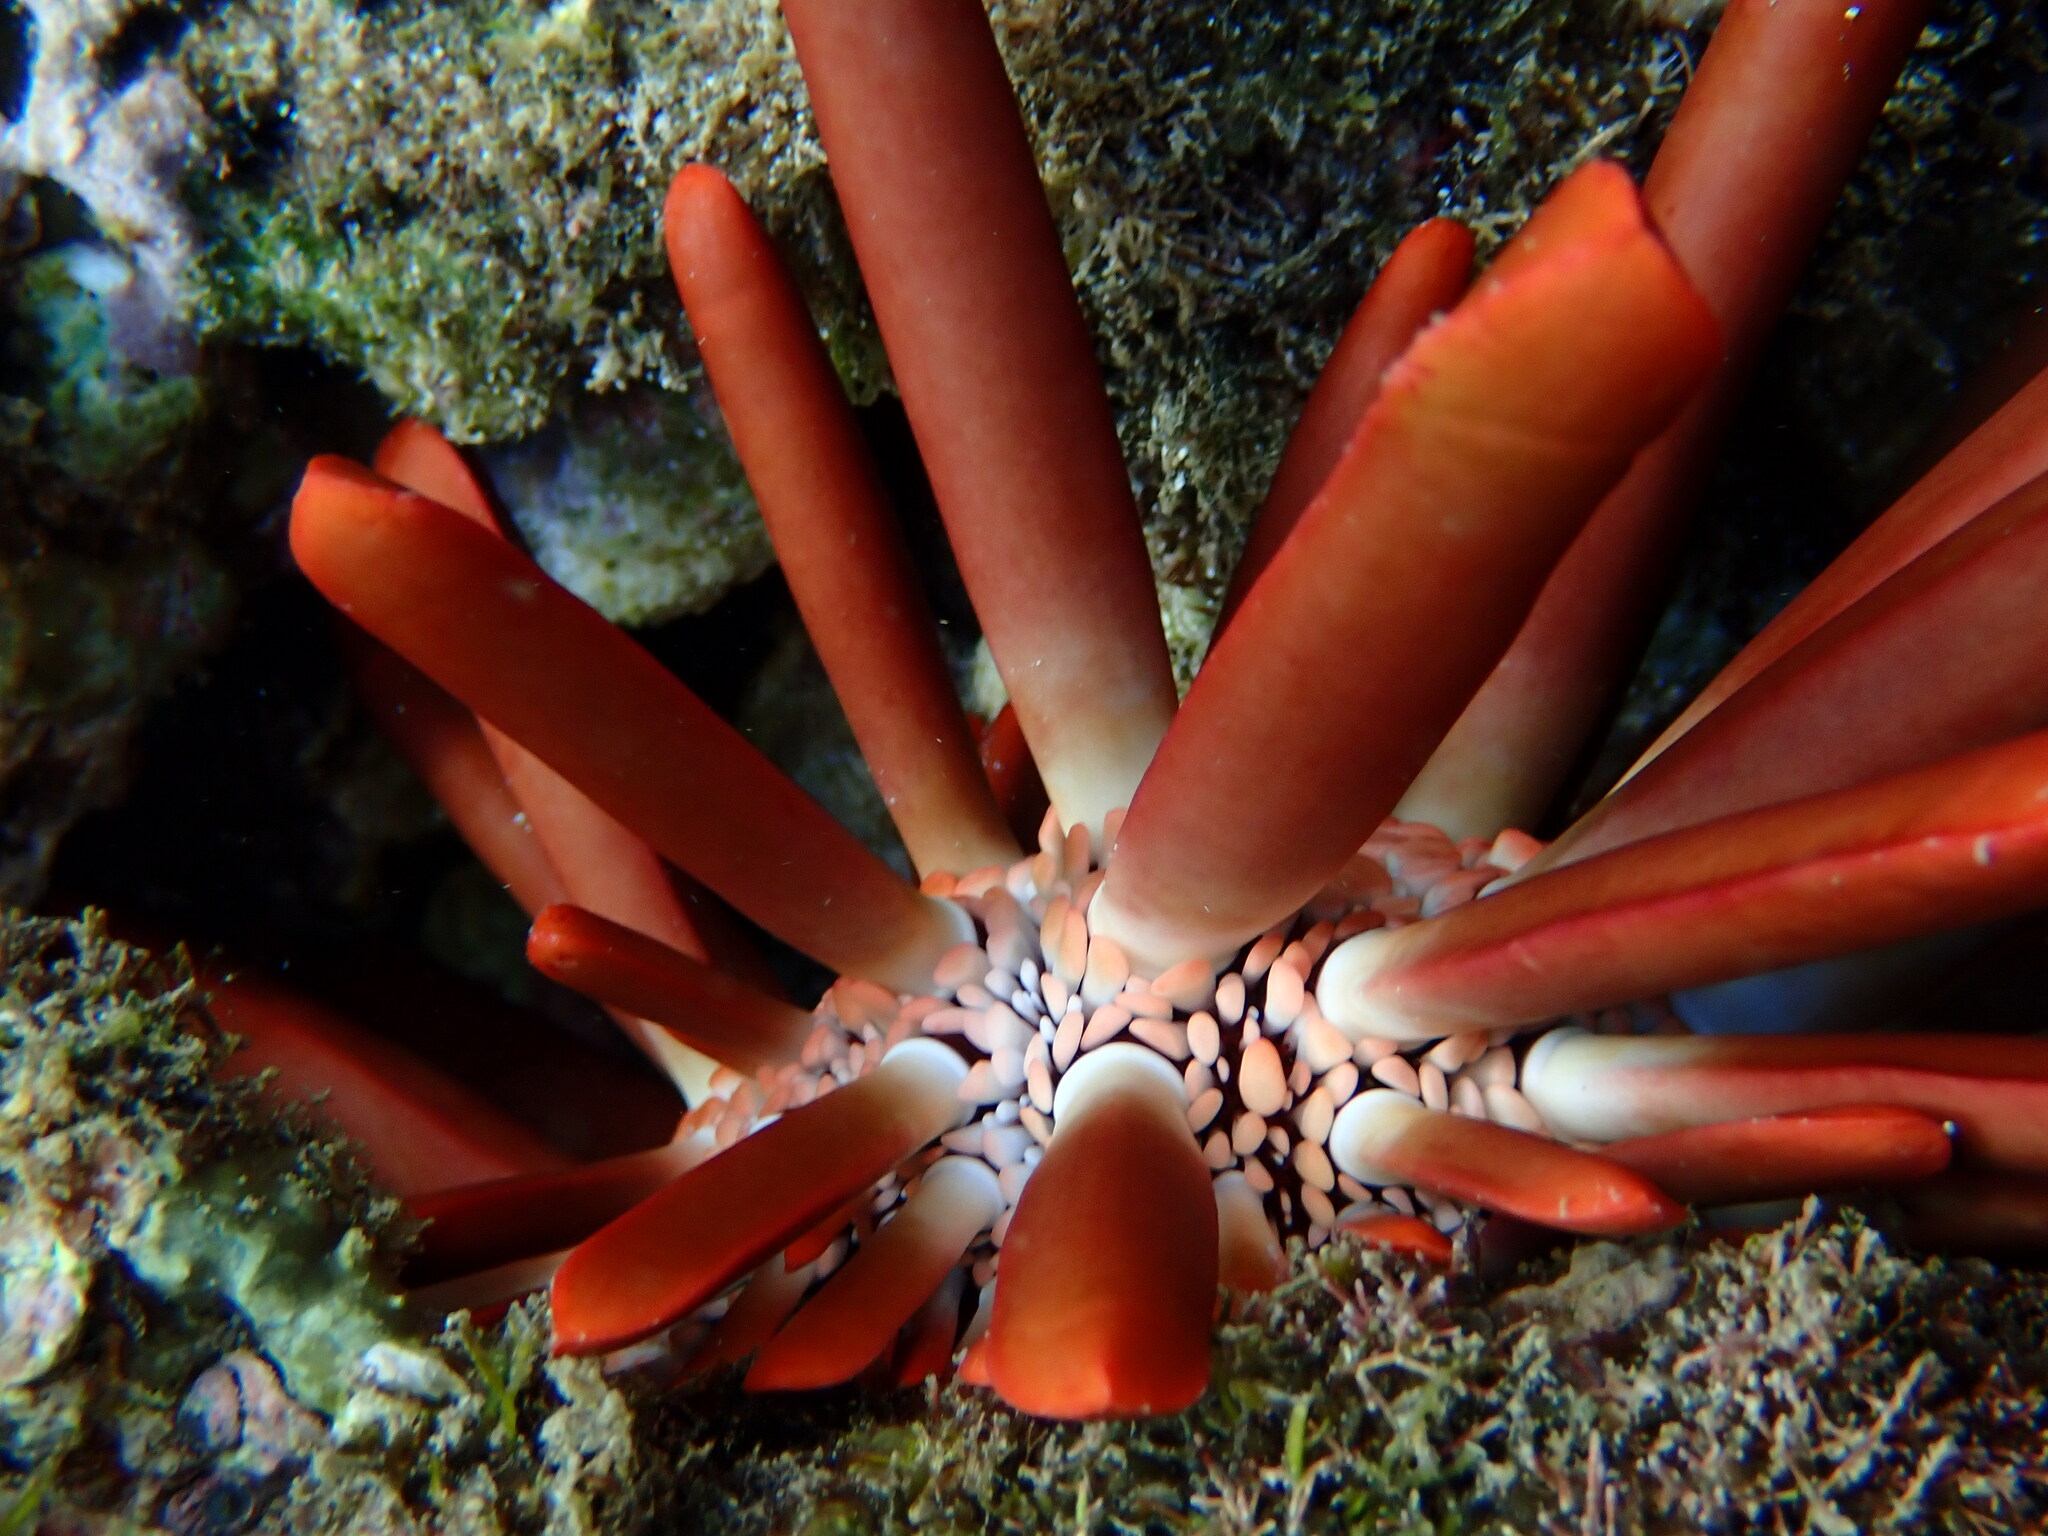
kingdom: Animalia
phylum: Echinodermata
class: Echinoidea
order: Camarodonta
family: Echinometridae
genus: Heterocentrotus
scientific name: Heterocentrotus mamillatus
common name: Slate pencil urchin
